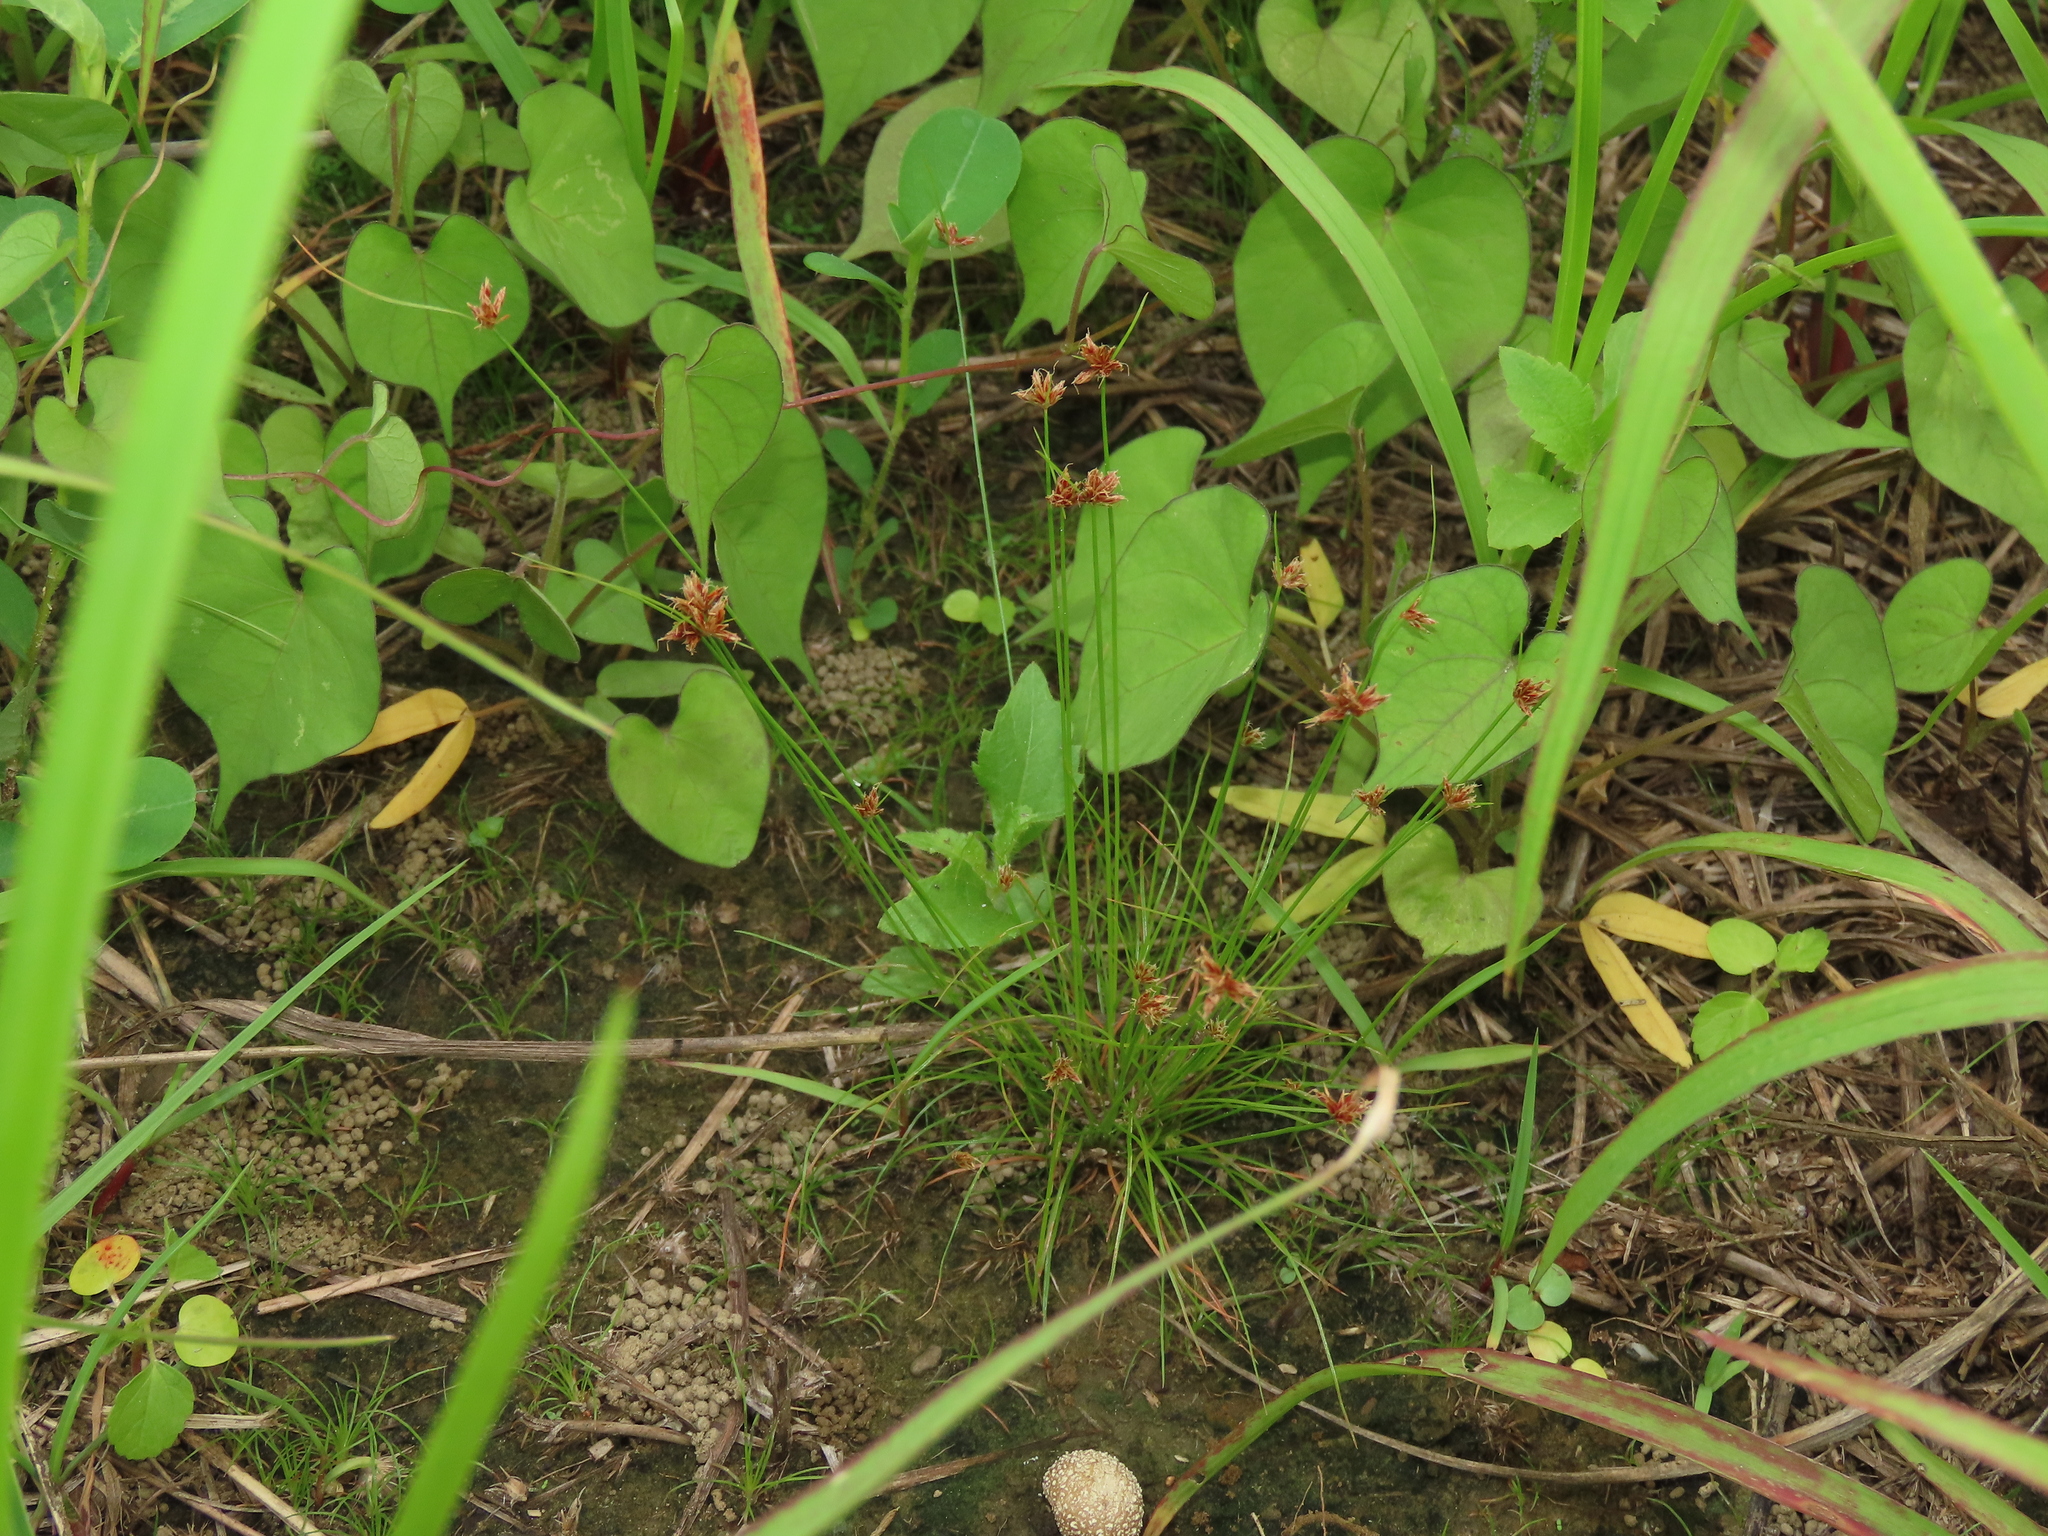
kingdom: Plantae
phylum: Tracheophyta
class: Liliopsida
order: Poales
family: Cyperaceae
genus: Bulbostylis
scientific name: Bulbostylis barbata
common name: Watergrass
